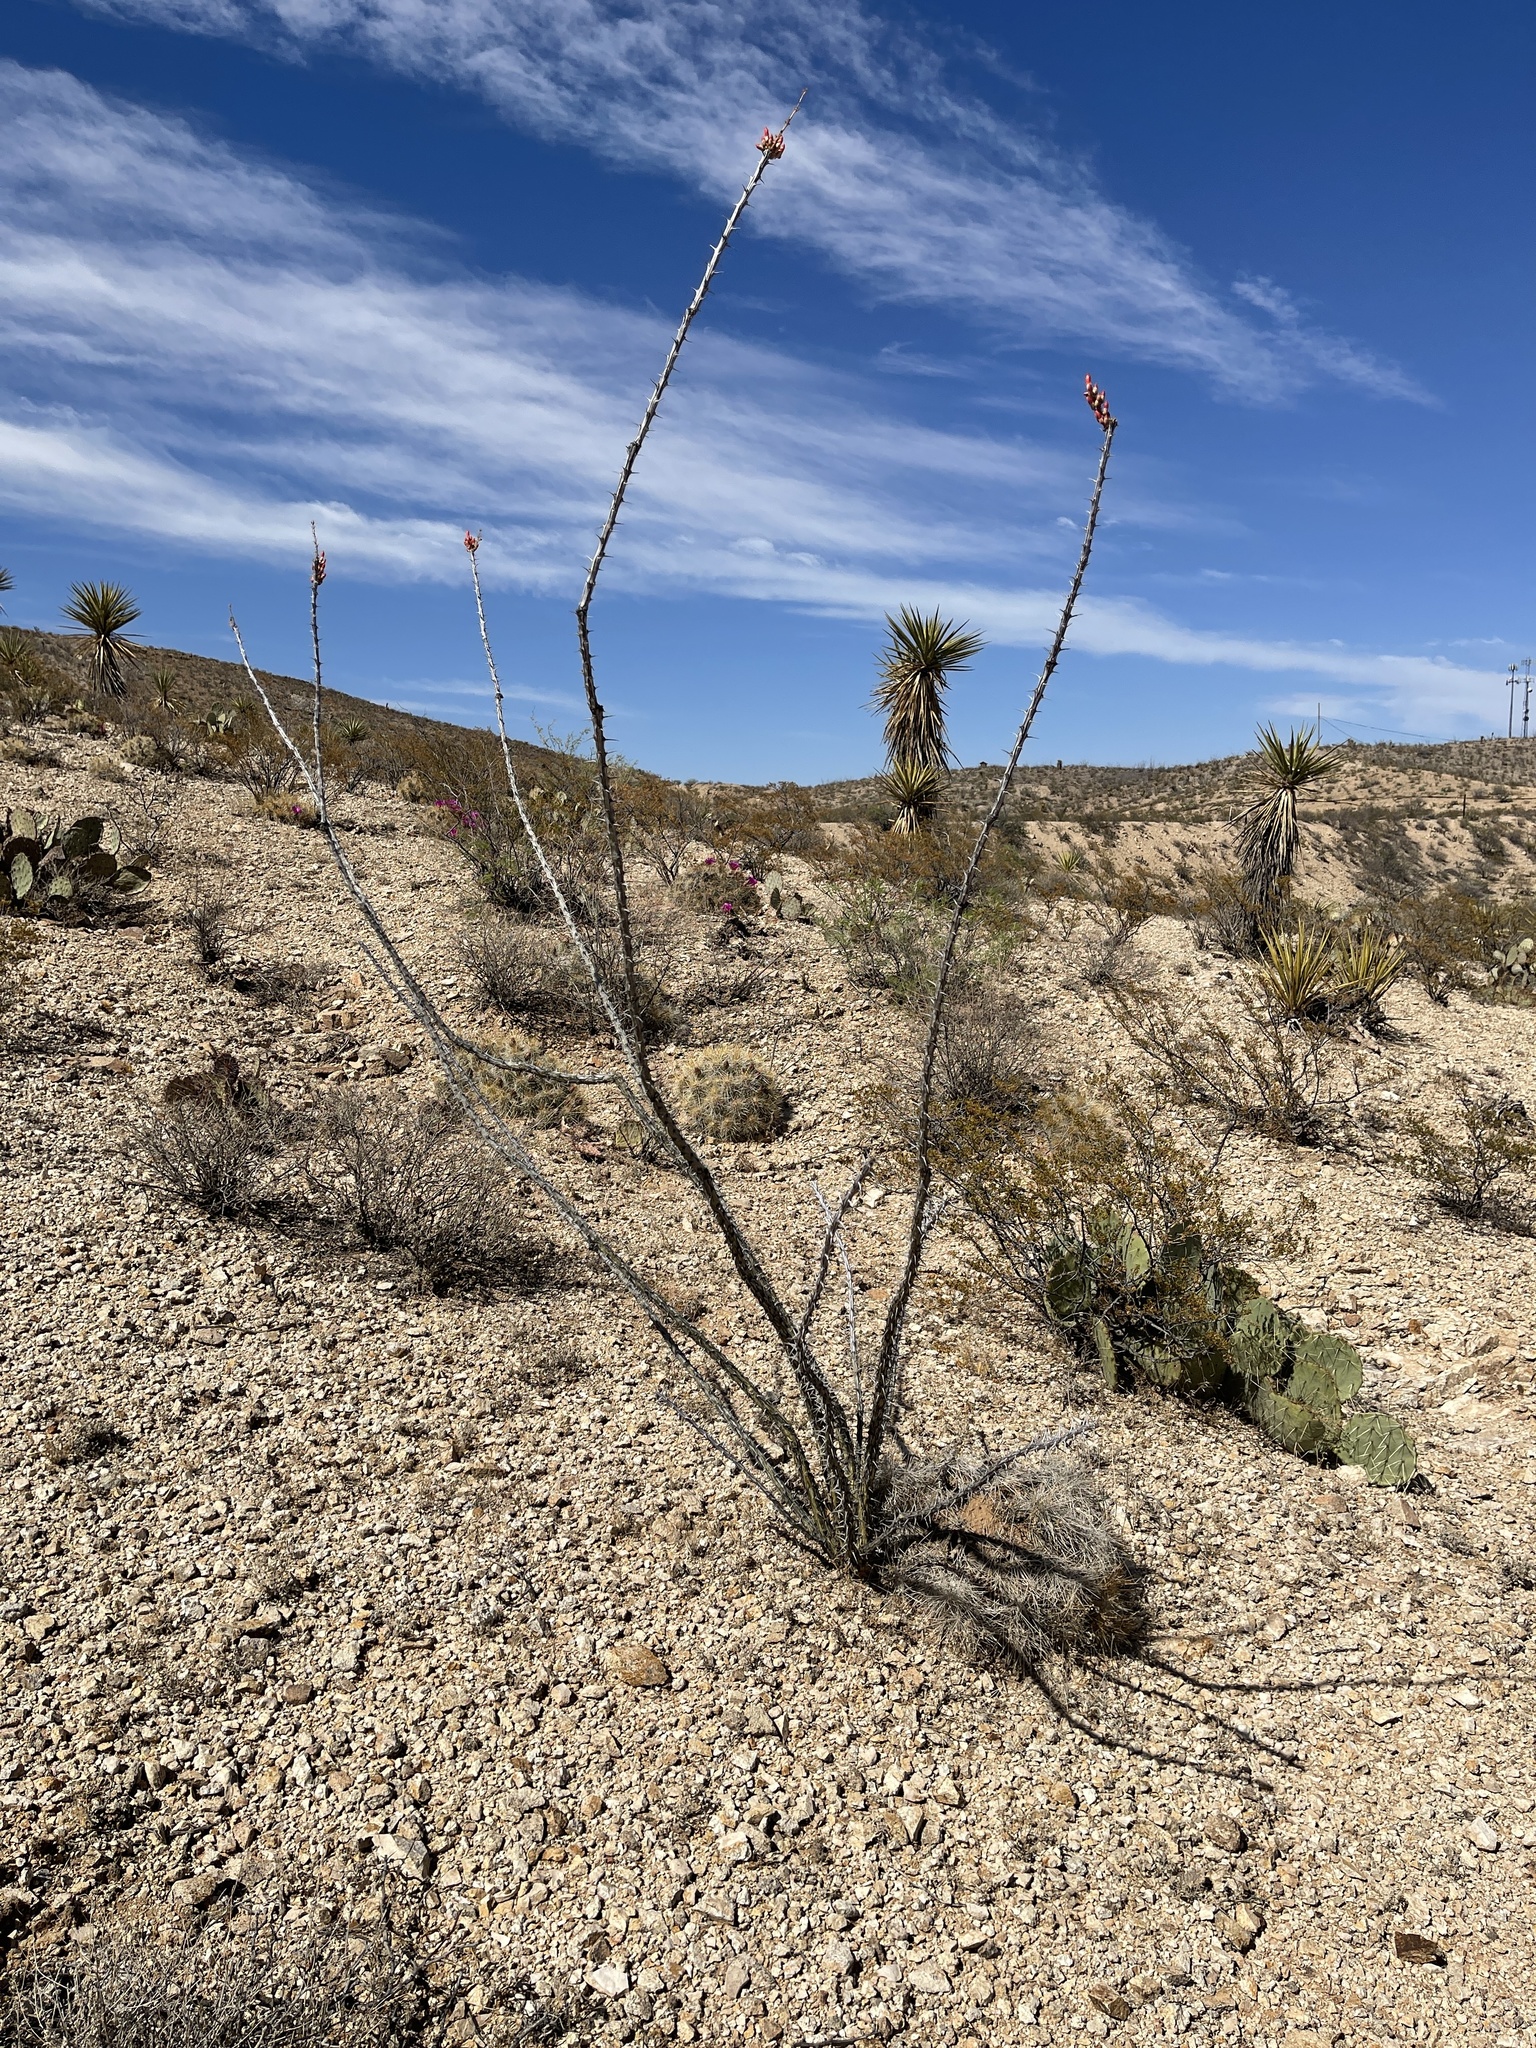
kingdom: Plantae
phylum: Tracheophyta
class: Magnoliopsida
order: Ericales
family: Fouquieriaceae
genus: Fouquieria
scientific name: Fouquieria splendens
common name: Vine-cactus
